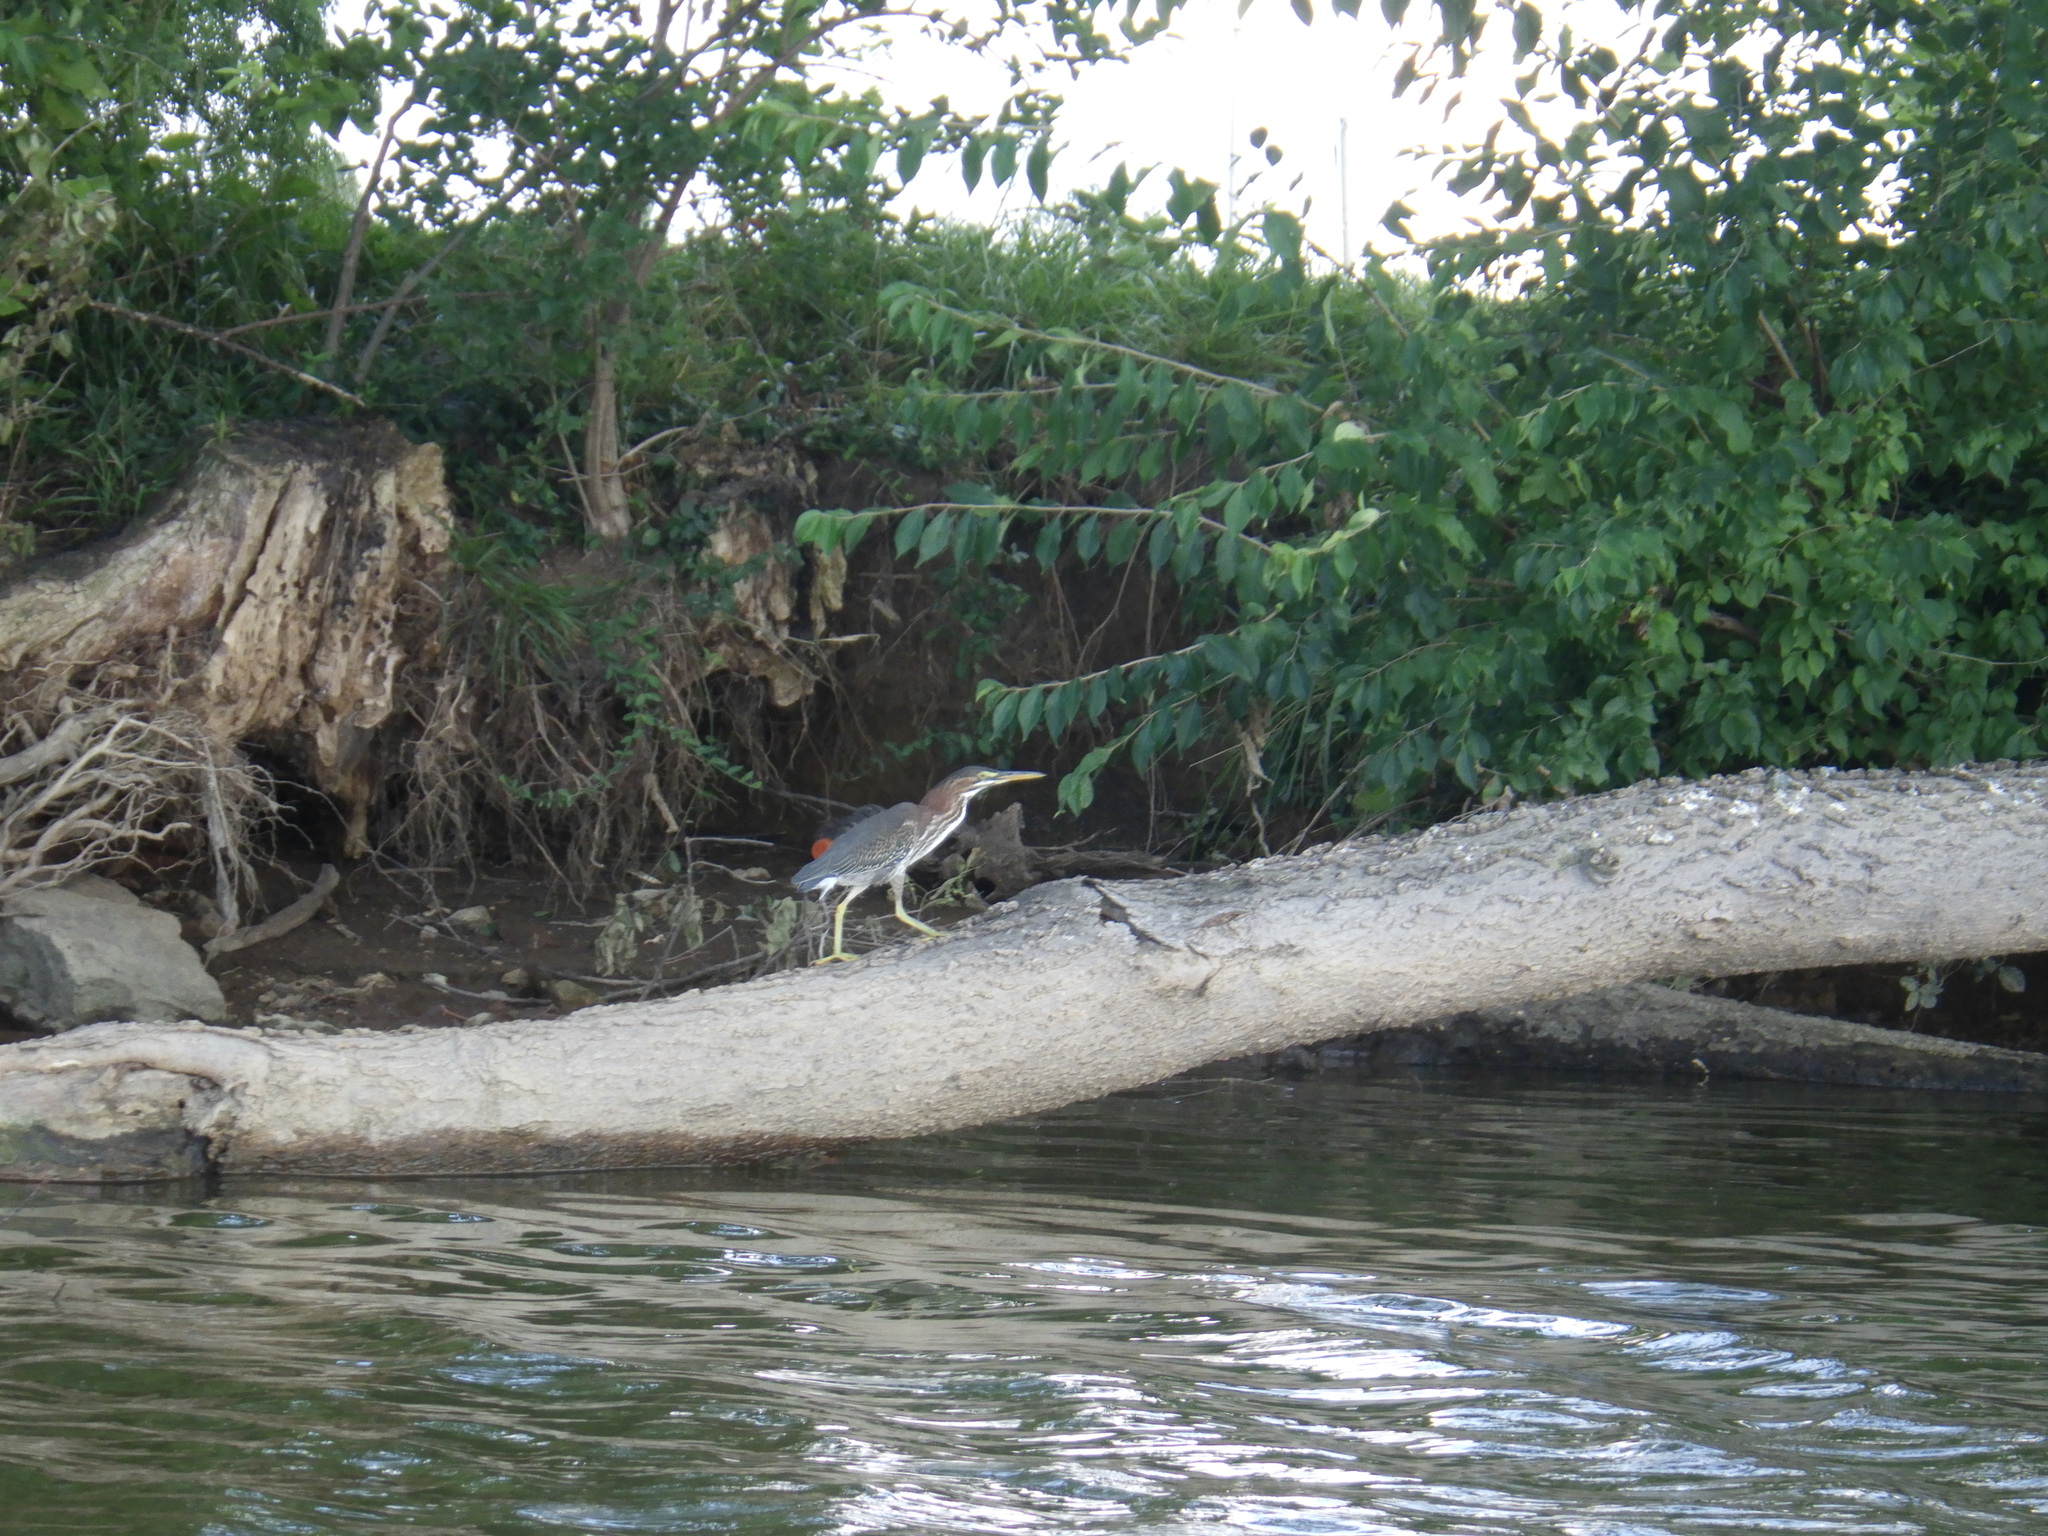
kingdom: Animalia
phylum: Chordata
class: Aves
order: Pelecaniformes
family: Ardeidae
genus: Butorides
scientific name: Butorides virescens
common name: Green heron
